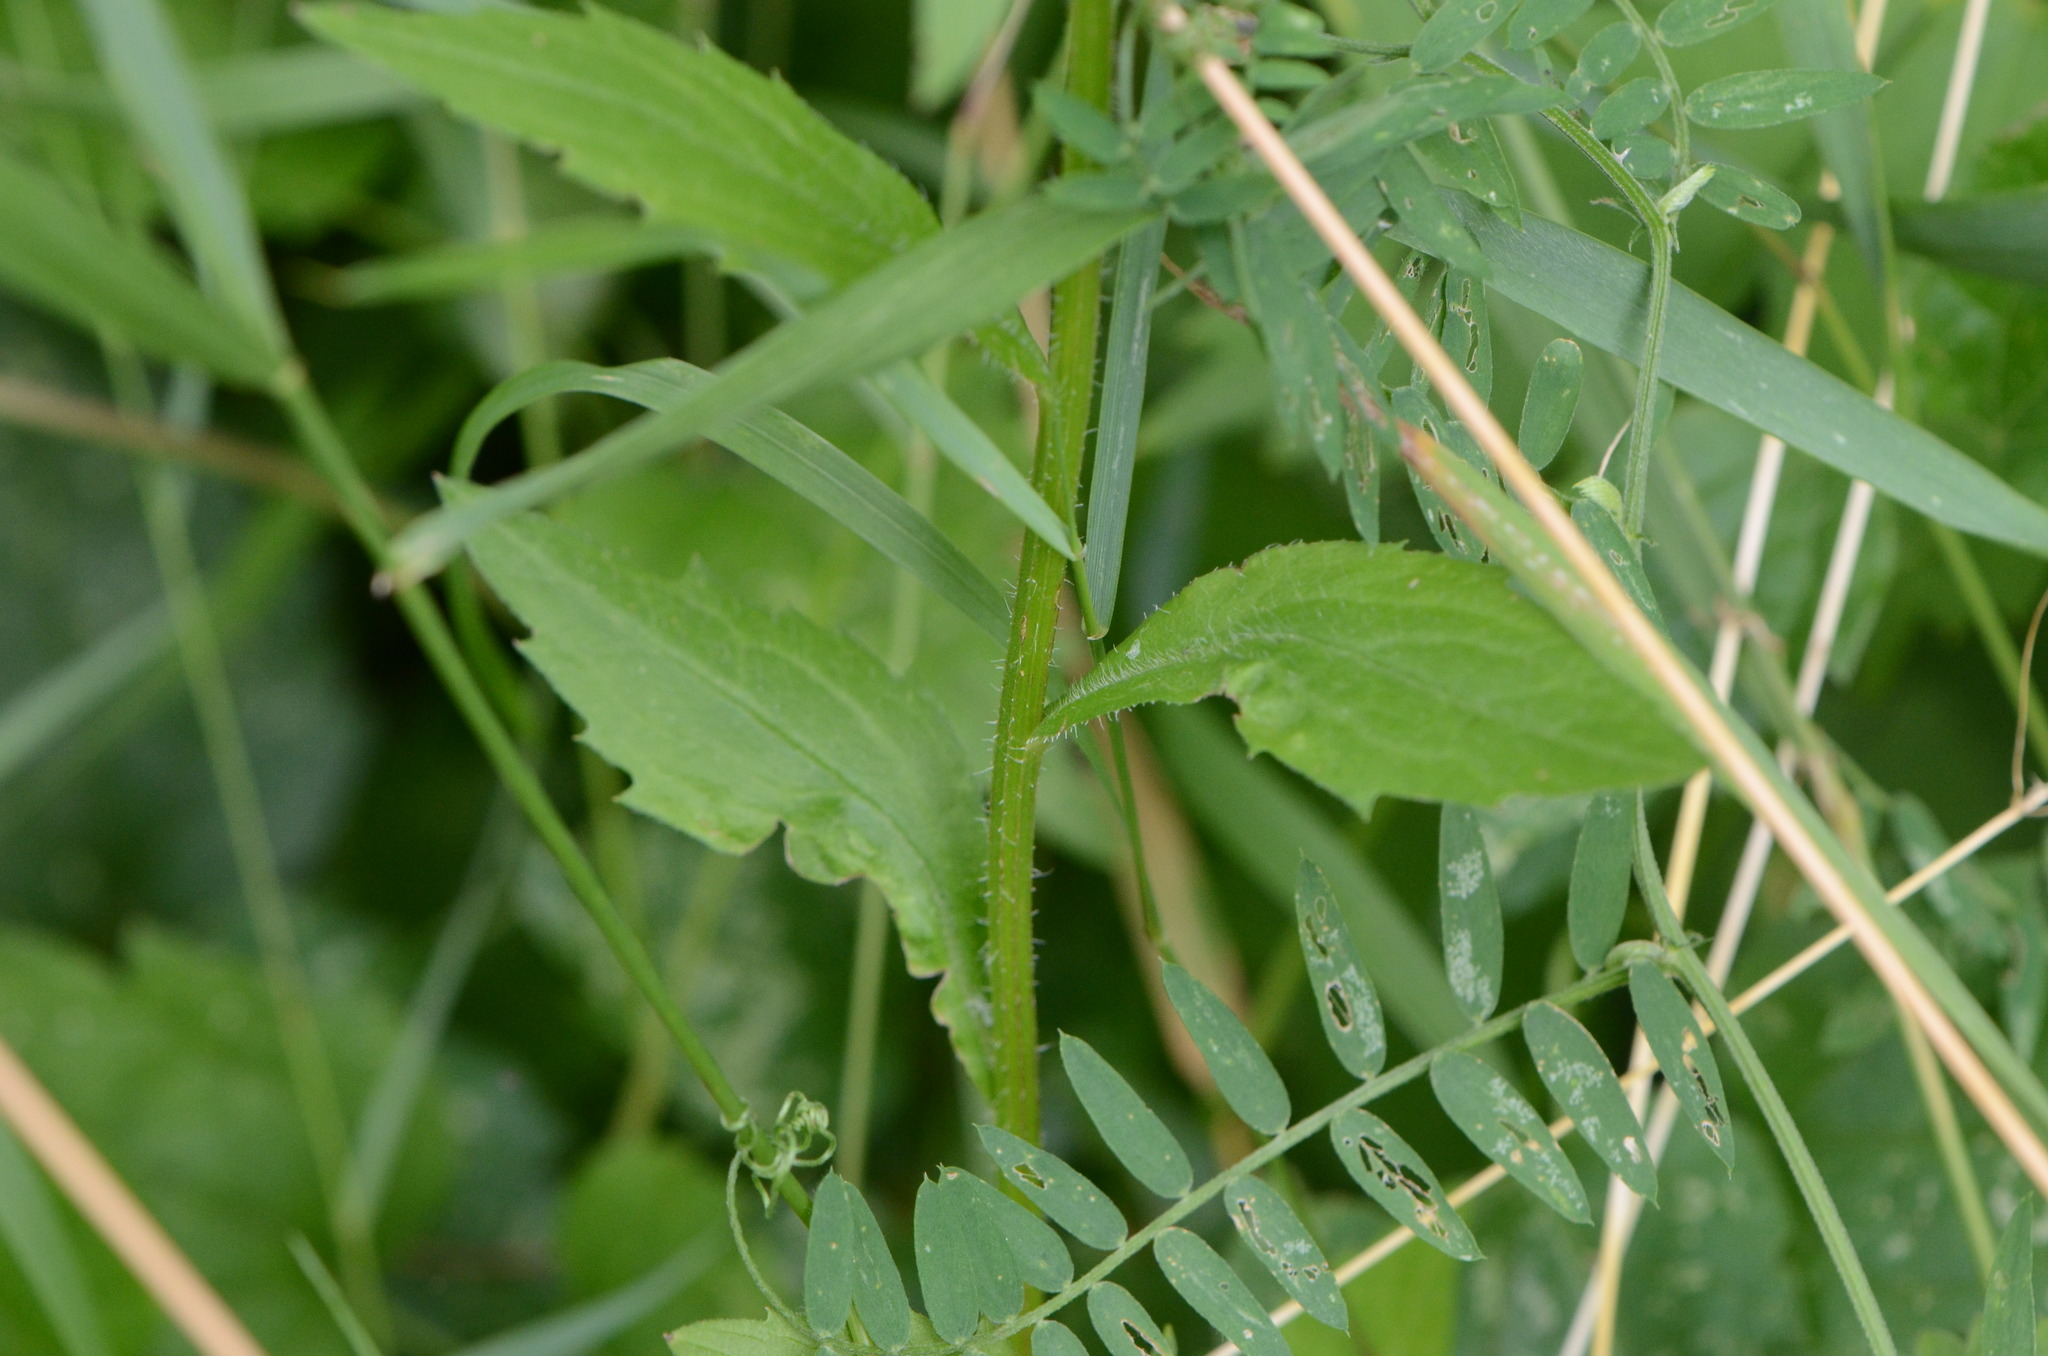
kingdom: Plantae
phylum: Tracheophyta
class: Magnoliopsida
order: Asterales
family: Asteraceae
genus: Erigeron
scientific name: Erigeron annuus
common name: Tall fleabane
